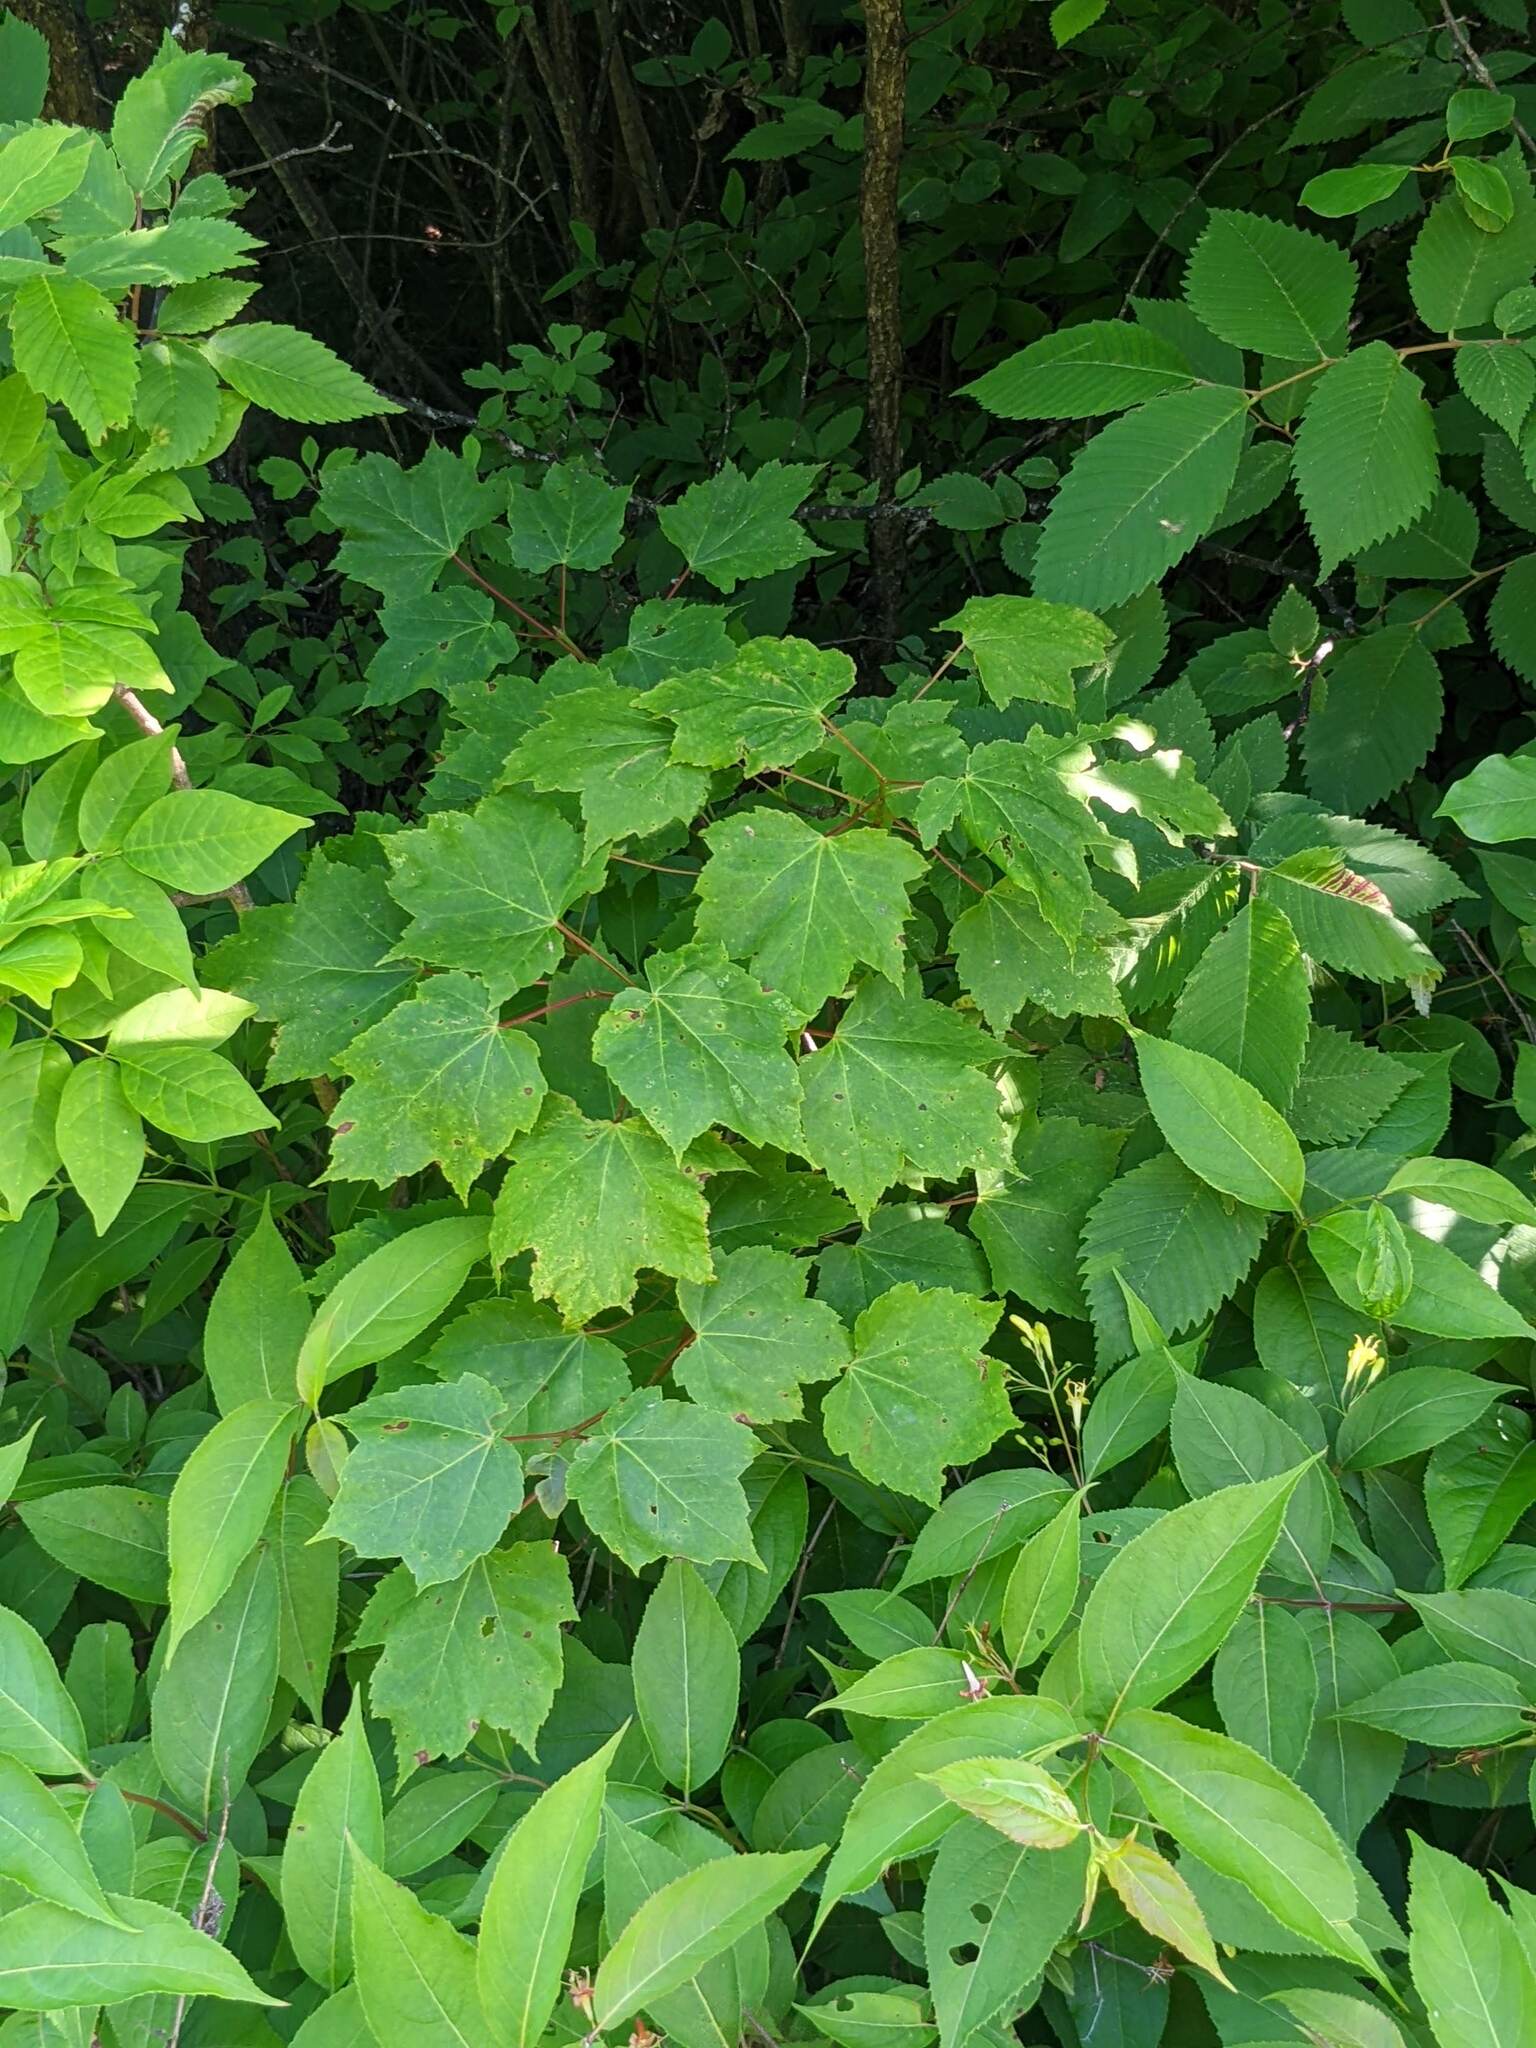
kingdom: Plantae
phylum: Tracheophyta
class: Magnoliopsida
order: Sapindales
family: Sapindaceae
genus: Acer
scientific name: Acer rubrum
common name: Red maple
